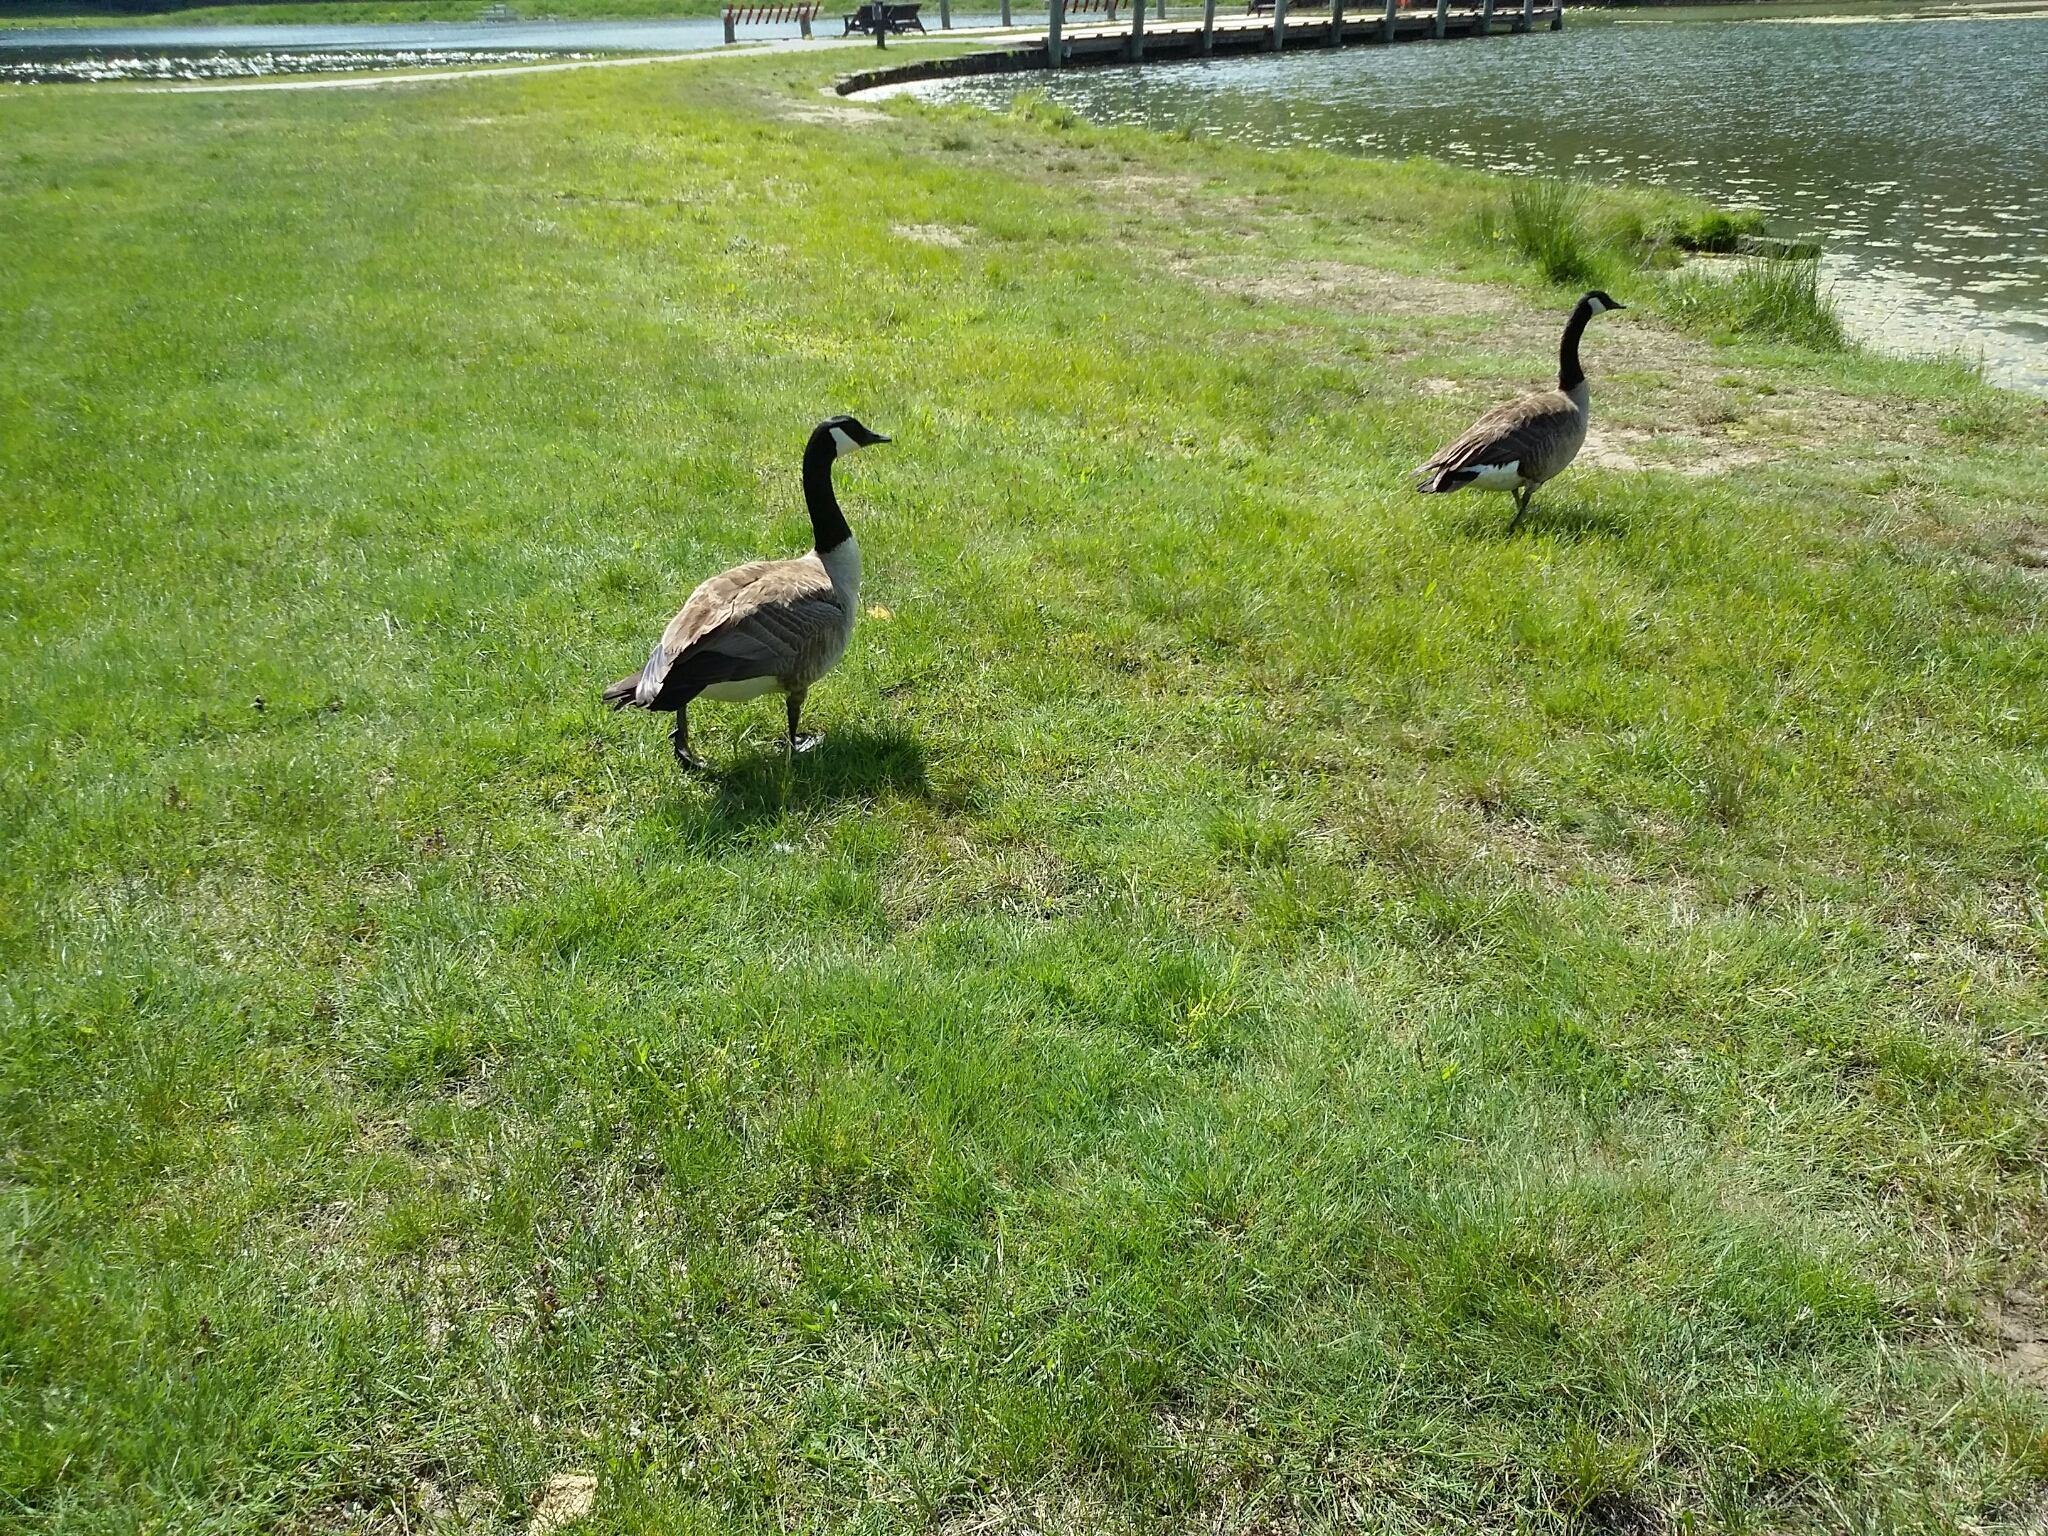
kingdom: Animalia
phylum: Chordata
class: Aves
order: Anseriformes
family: Anatidae
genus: Branta
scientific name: Branta canadensis
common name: Canada goose
